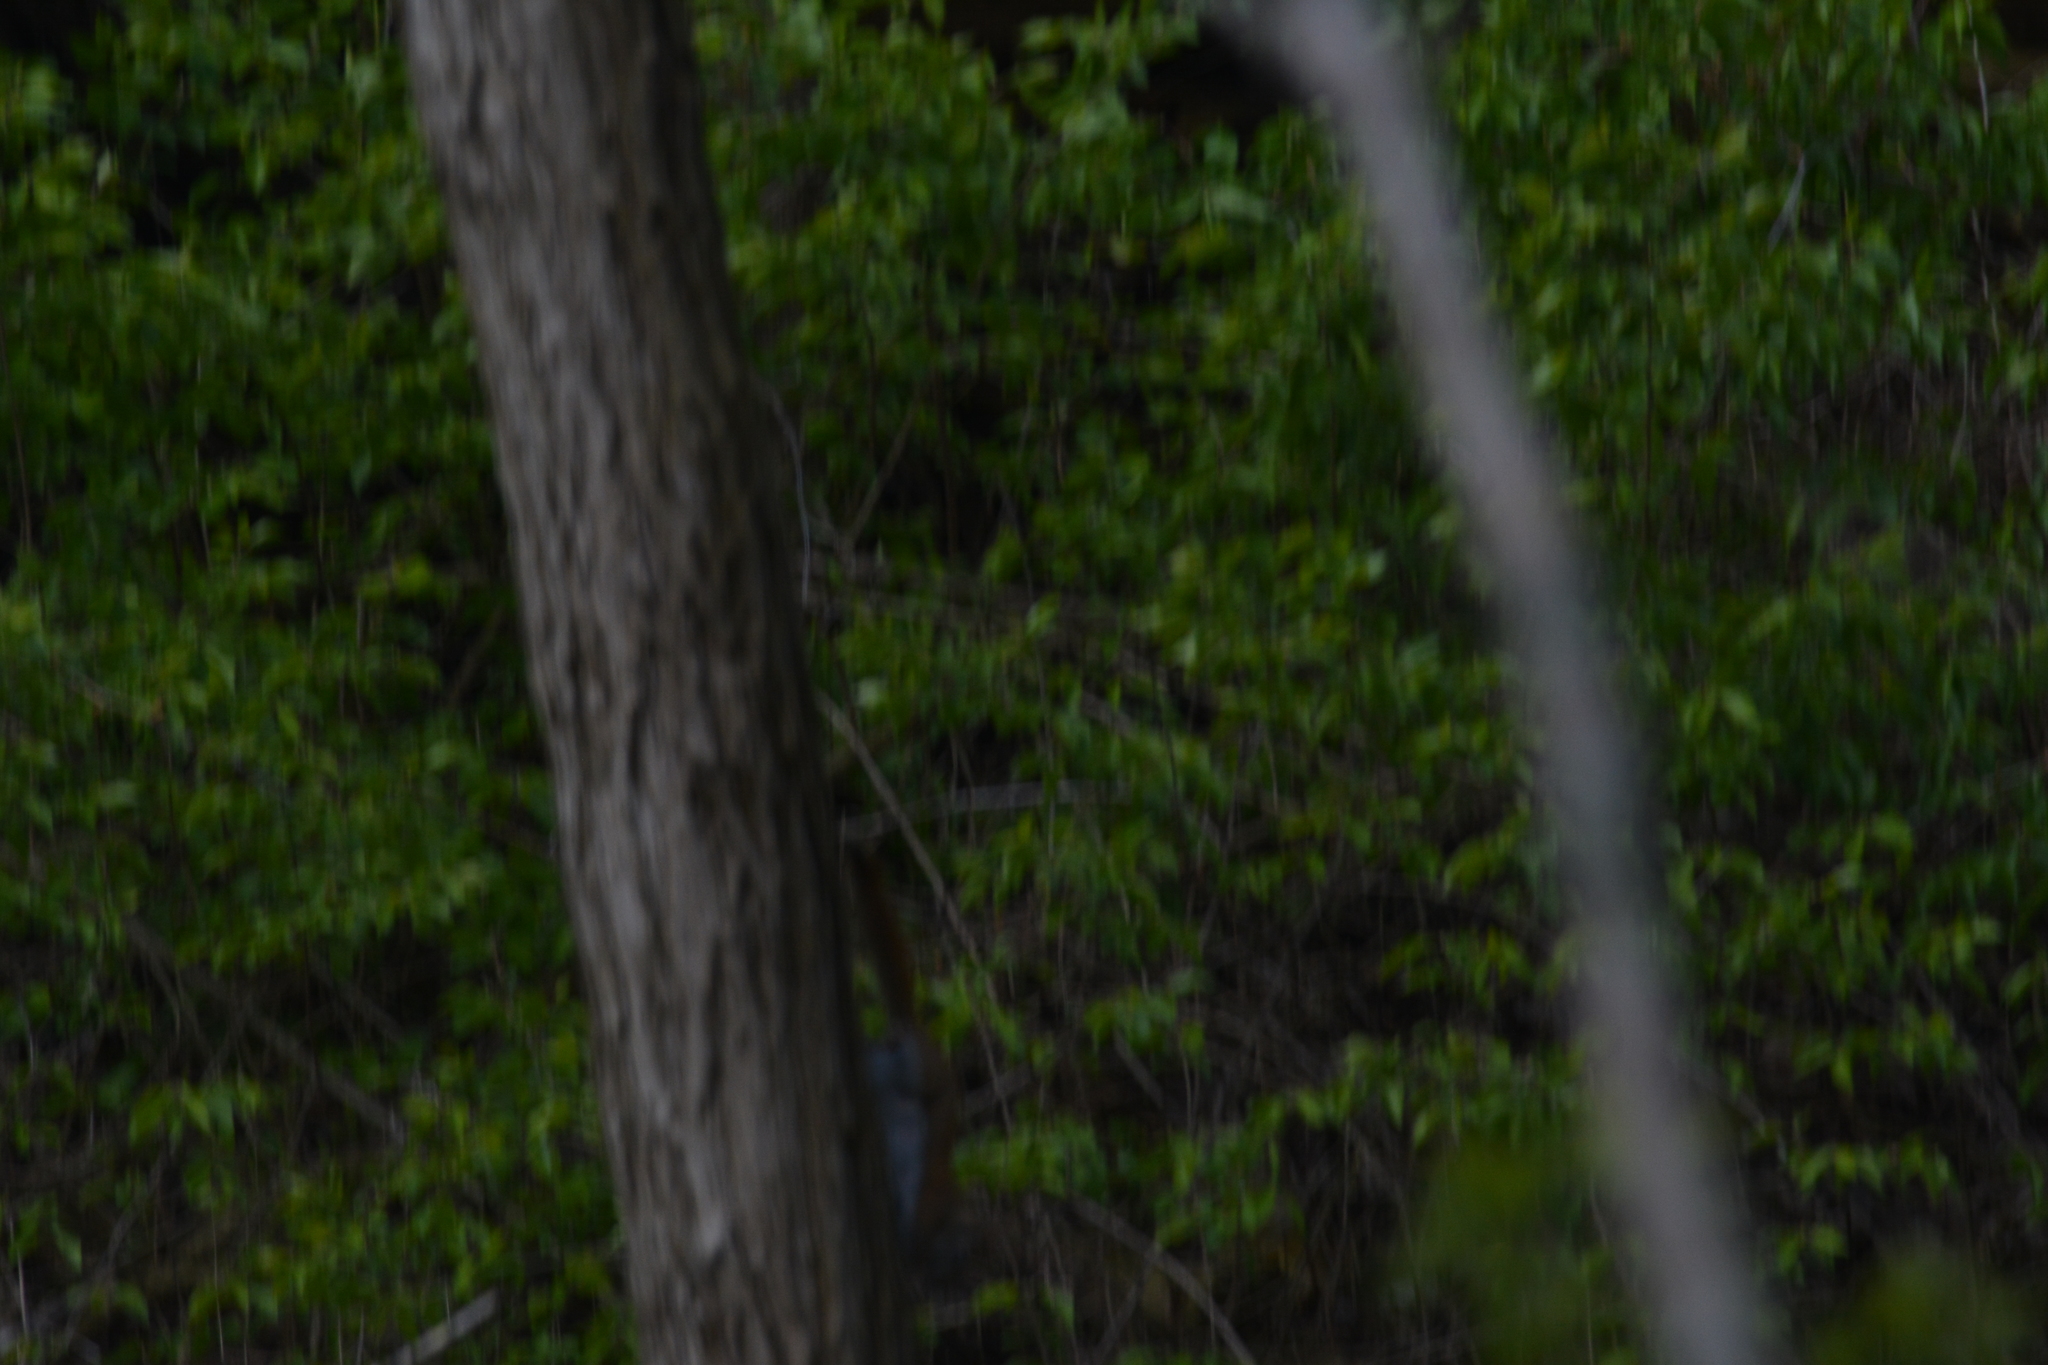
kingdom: Animalia
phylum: Chordata
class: Mammalia
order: Rodentia
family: Sciuridae
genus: Tamiasciurus
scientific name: Tamiasciurus hudsonicus
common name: Red squirrel
